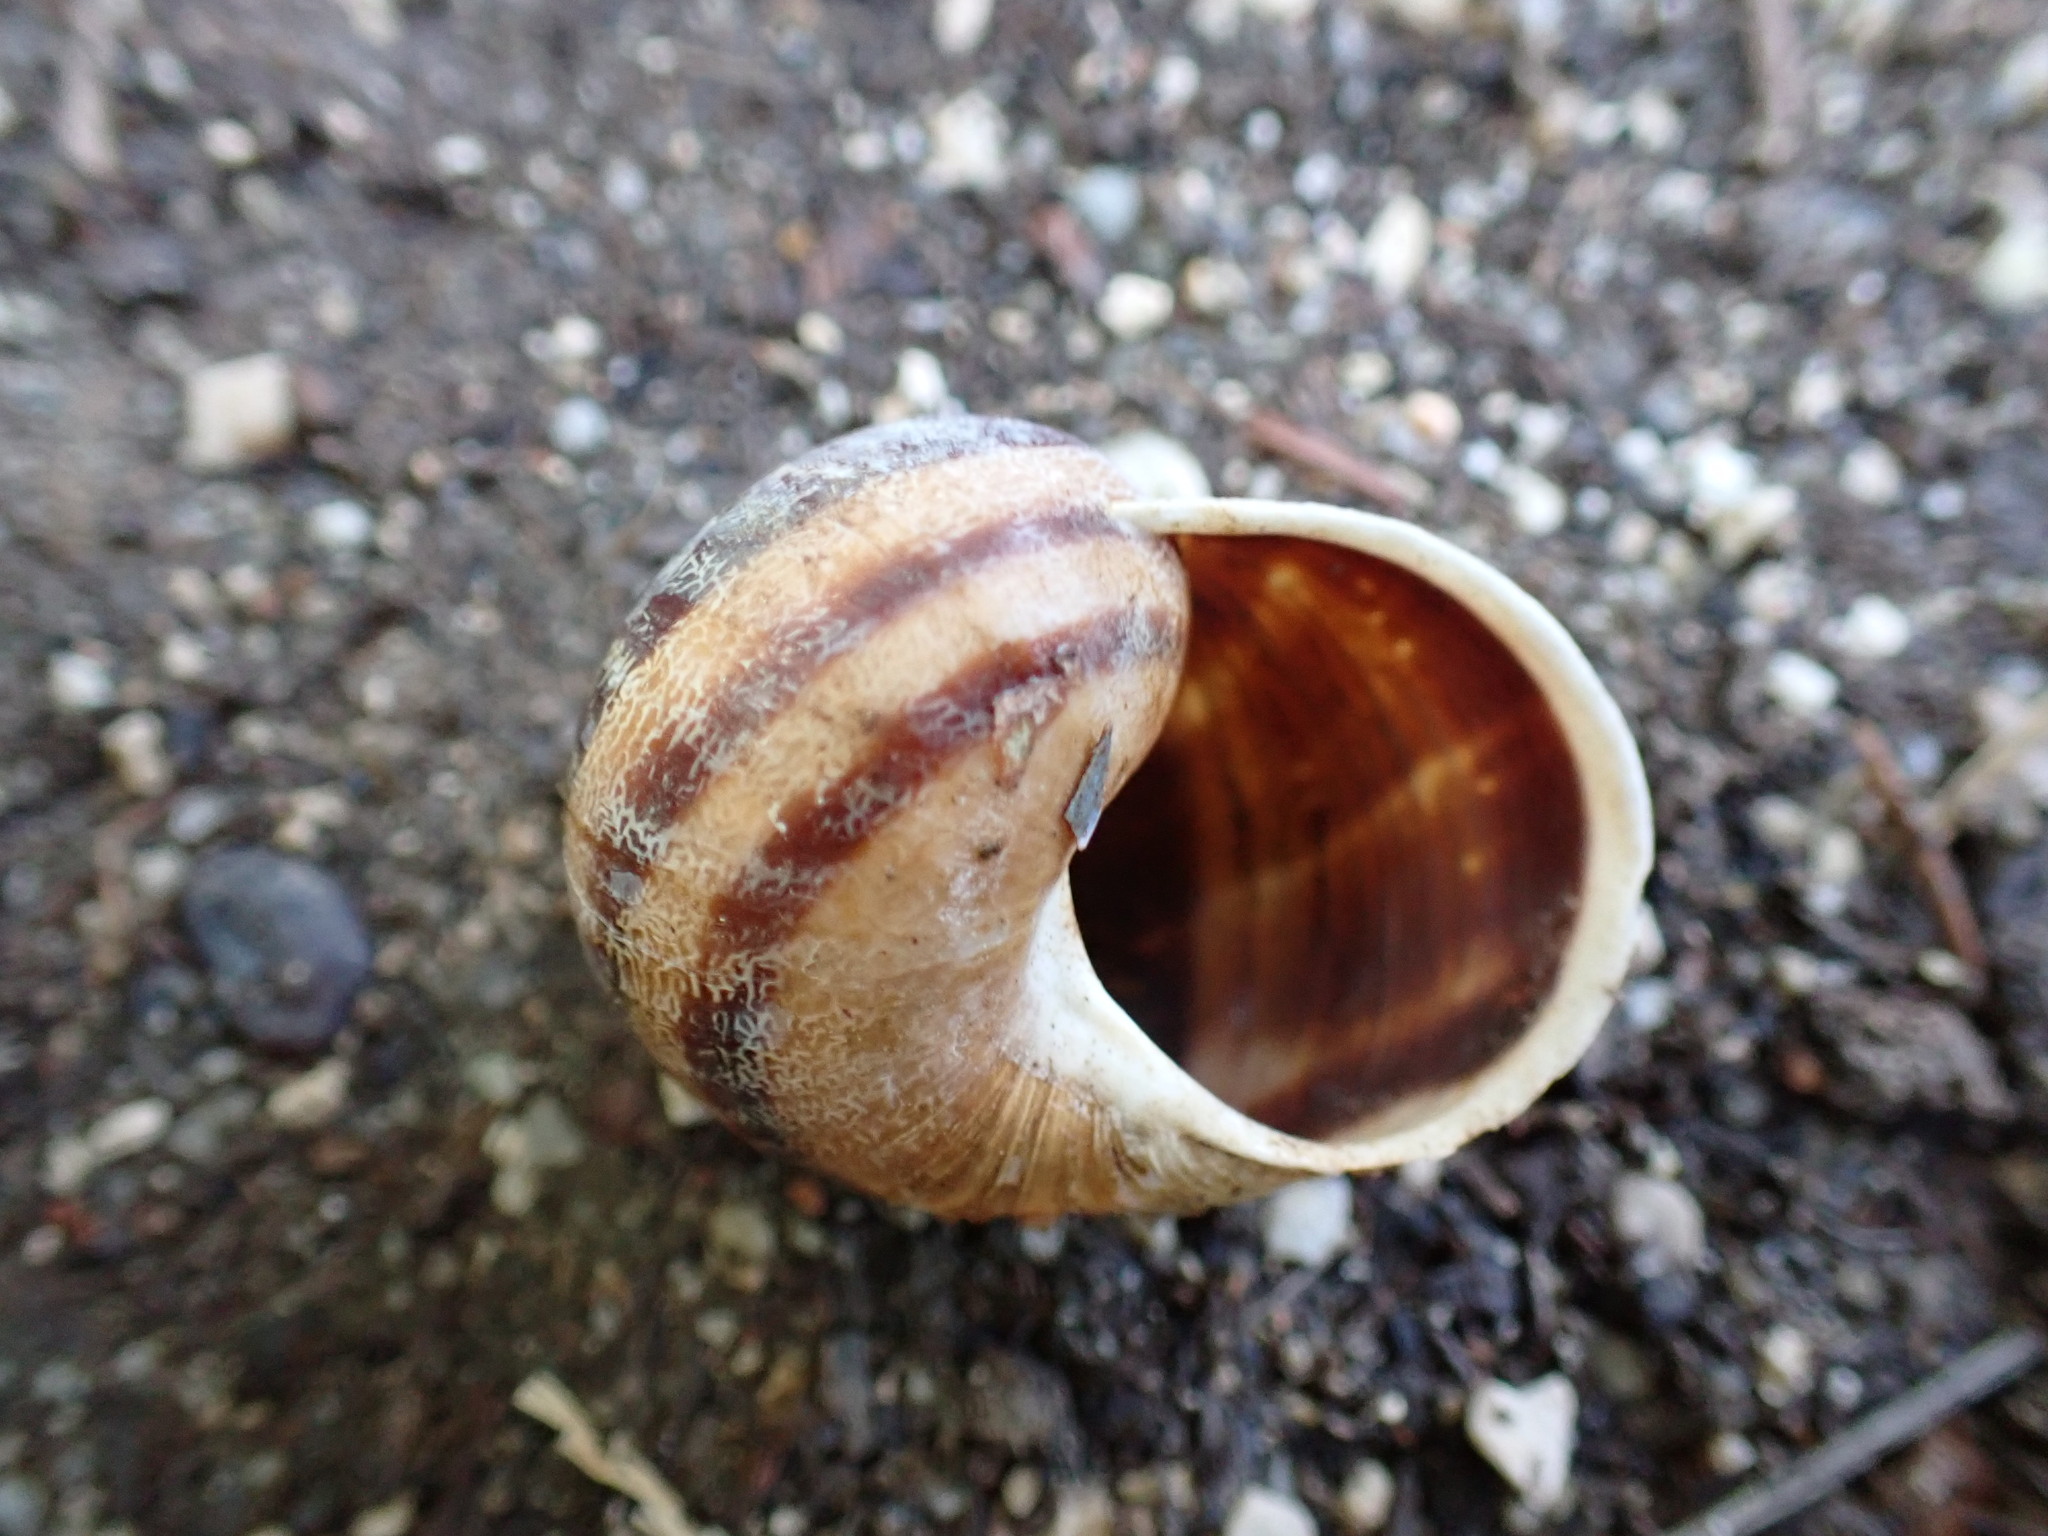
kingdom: Animalia
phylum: Mollusca
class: Gastropoda
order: Stylommatophora
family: Helicidae
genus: Cornu
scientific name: Cornu aspersum
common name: Brown garden snail
